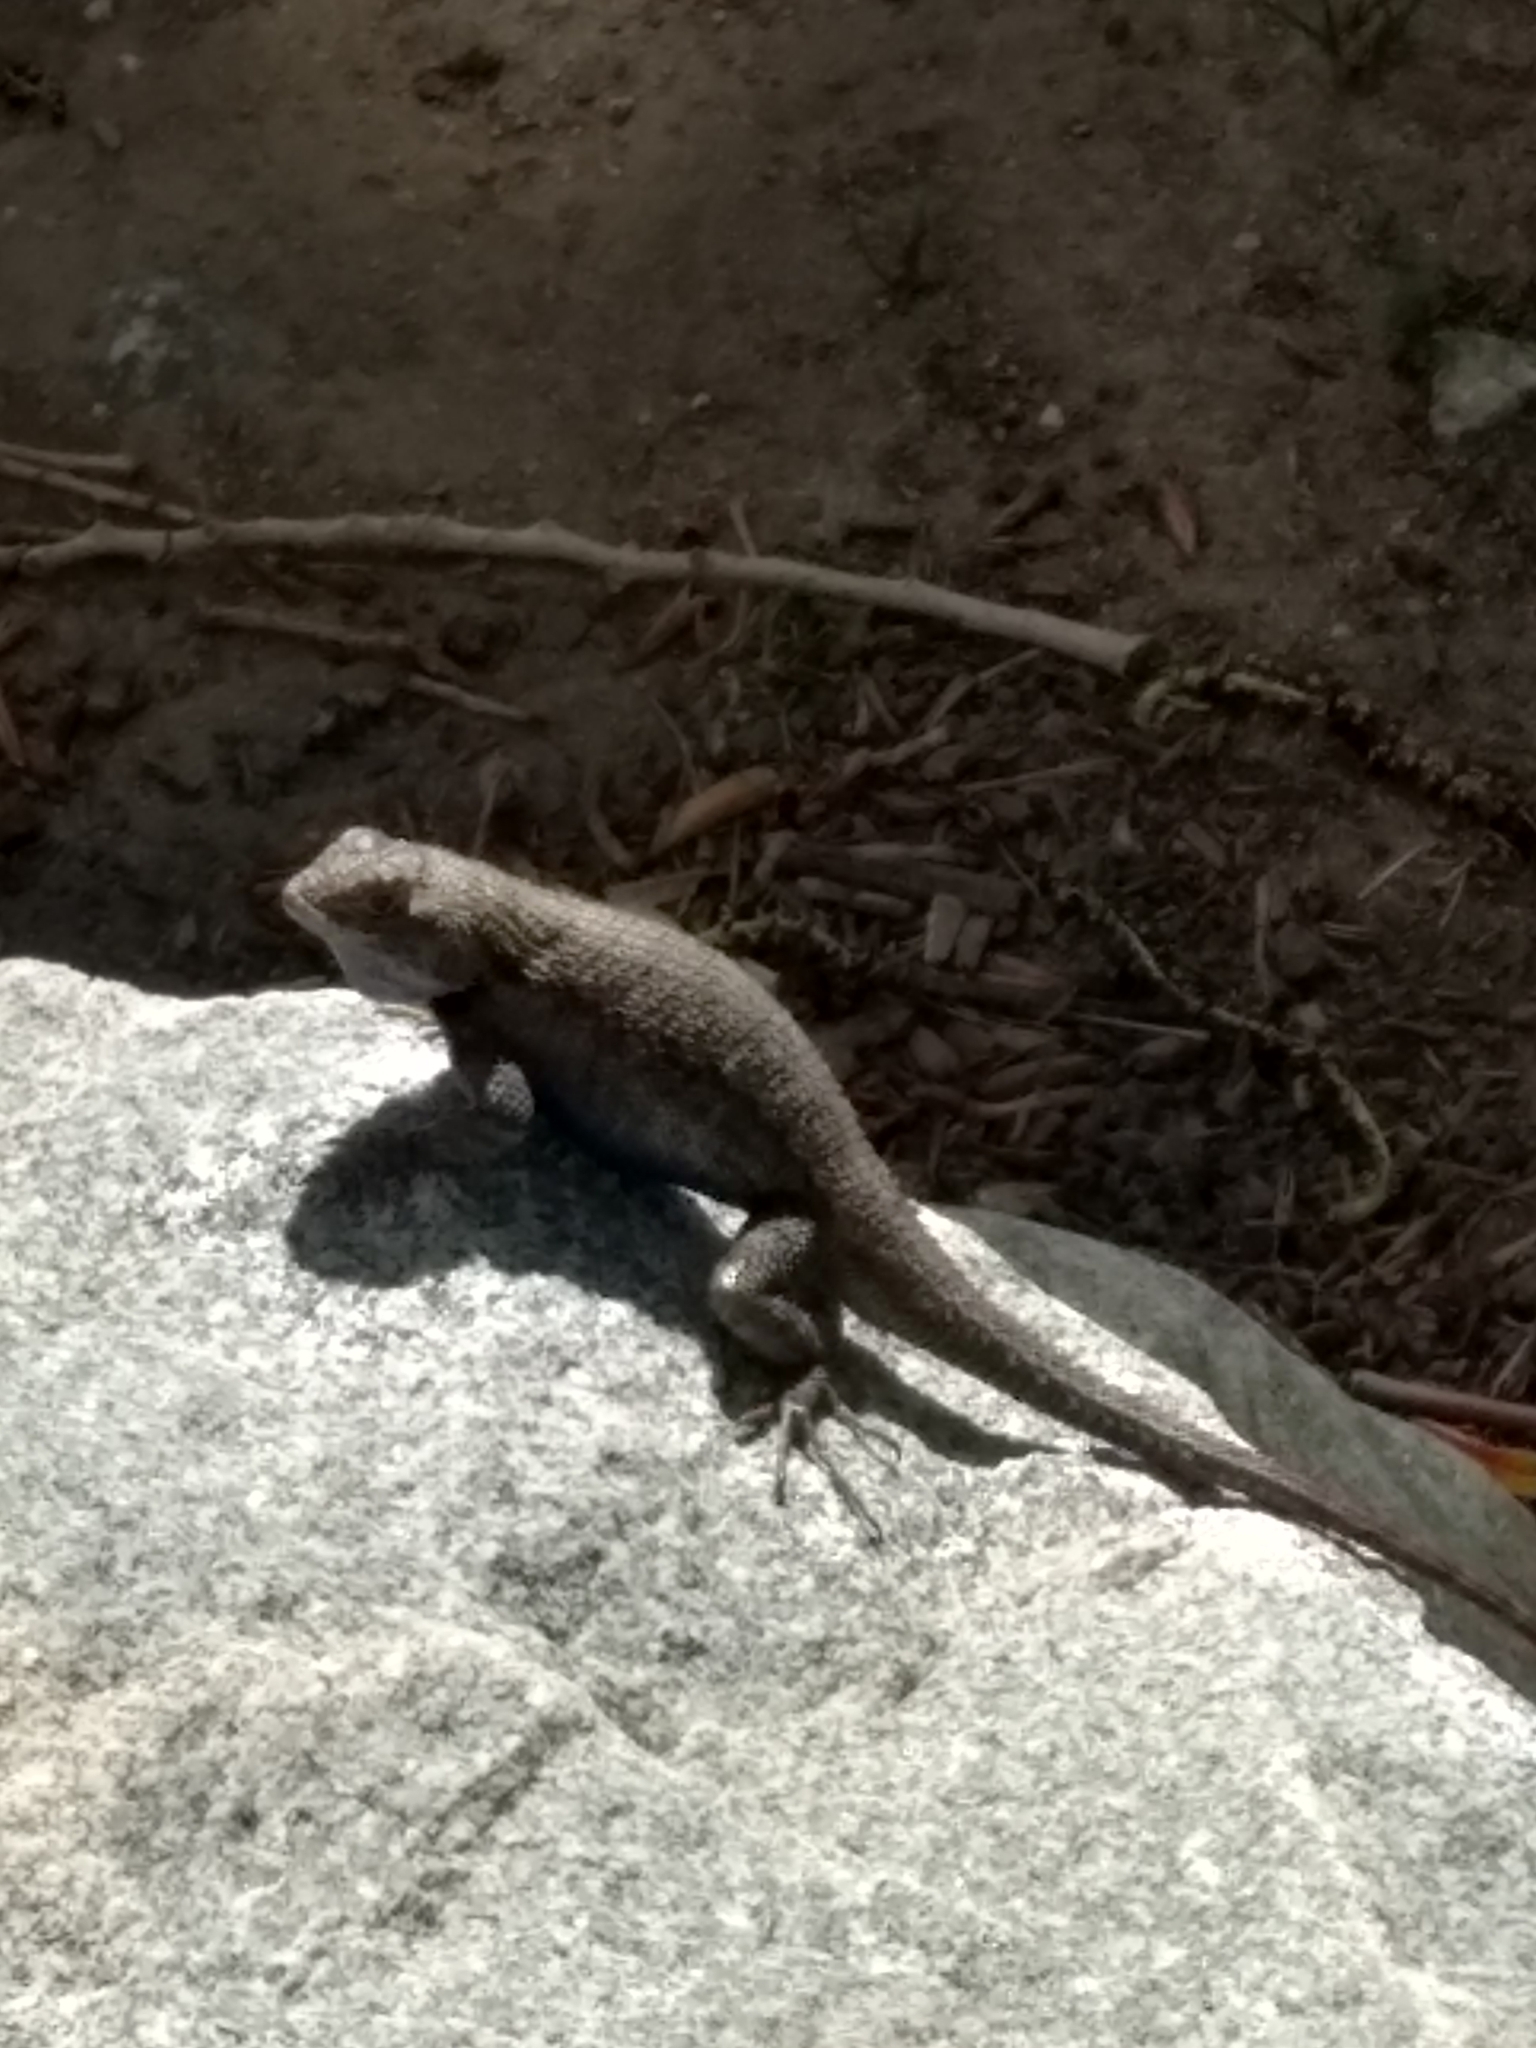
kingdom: Animalia
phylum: Chordata
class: Squamata
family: Phrynosomatidae
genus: Sceloporus
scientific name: Sceloporus occidentalis
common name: Western fence lizard
